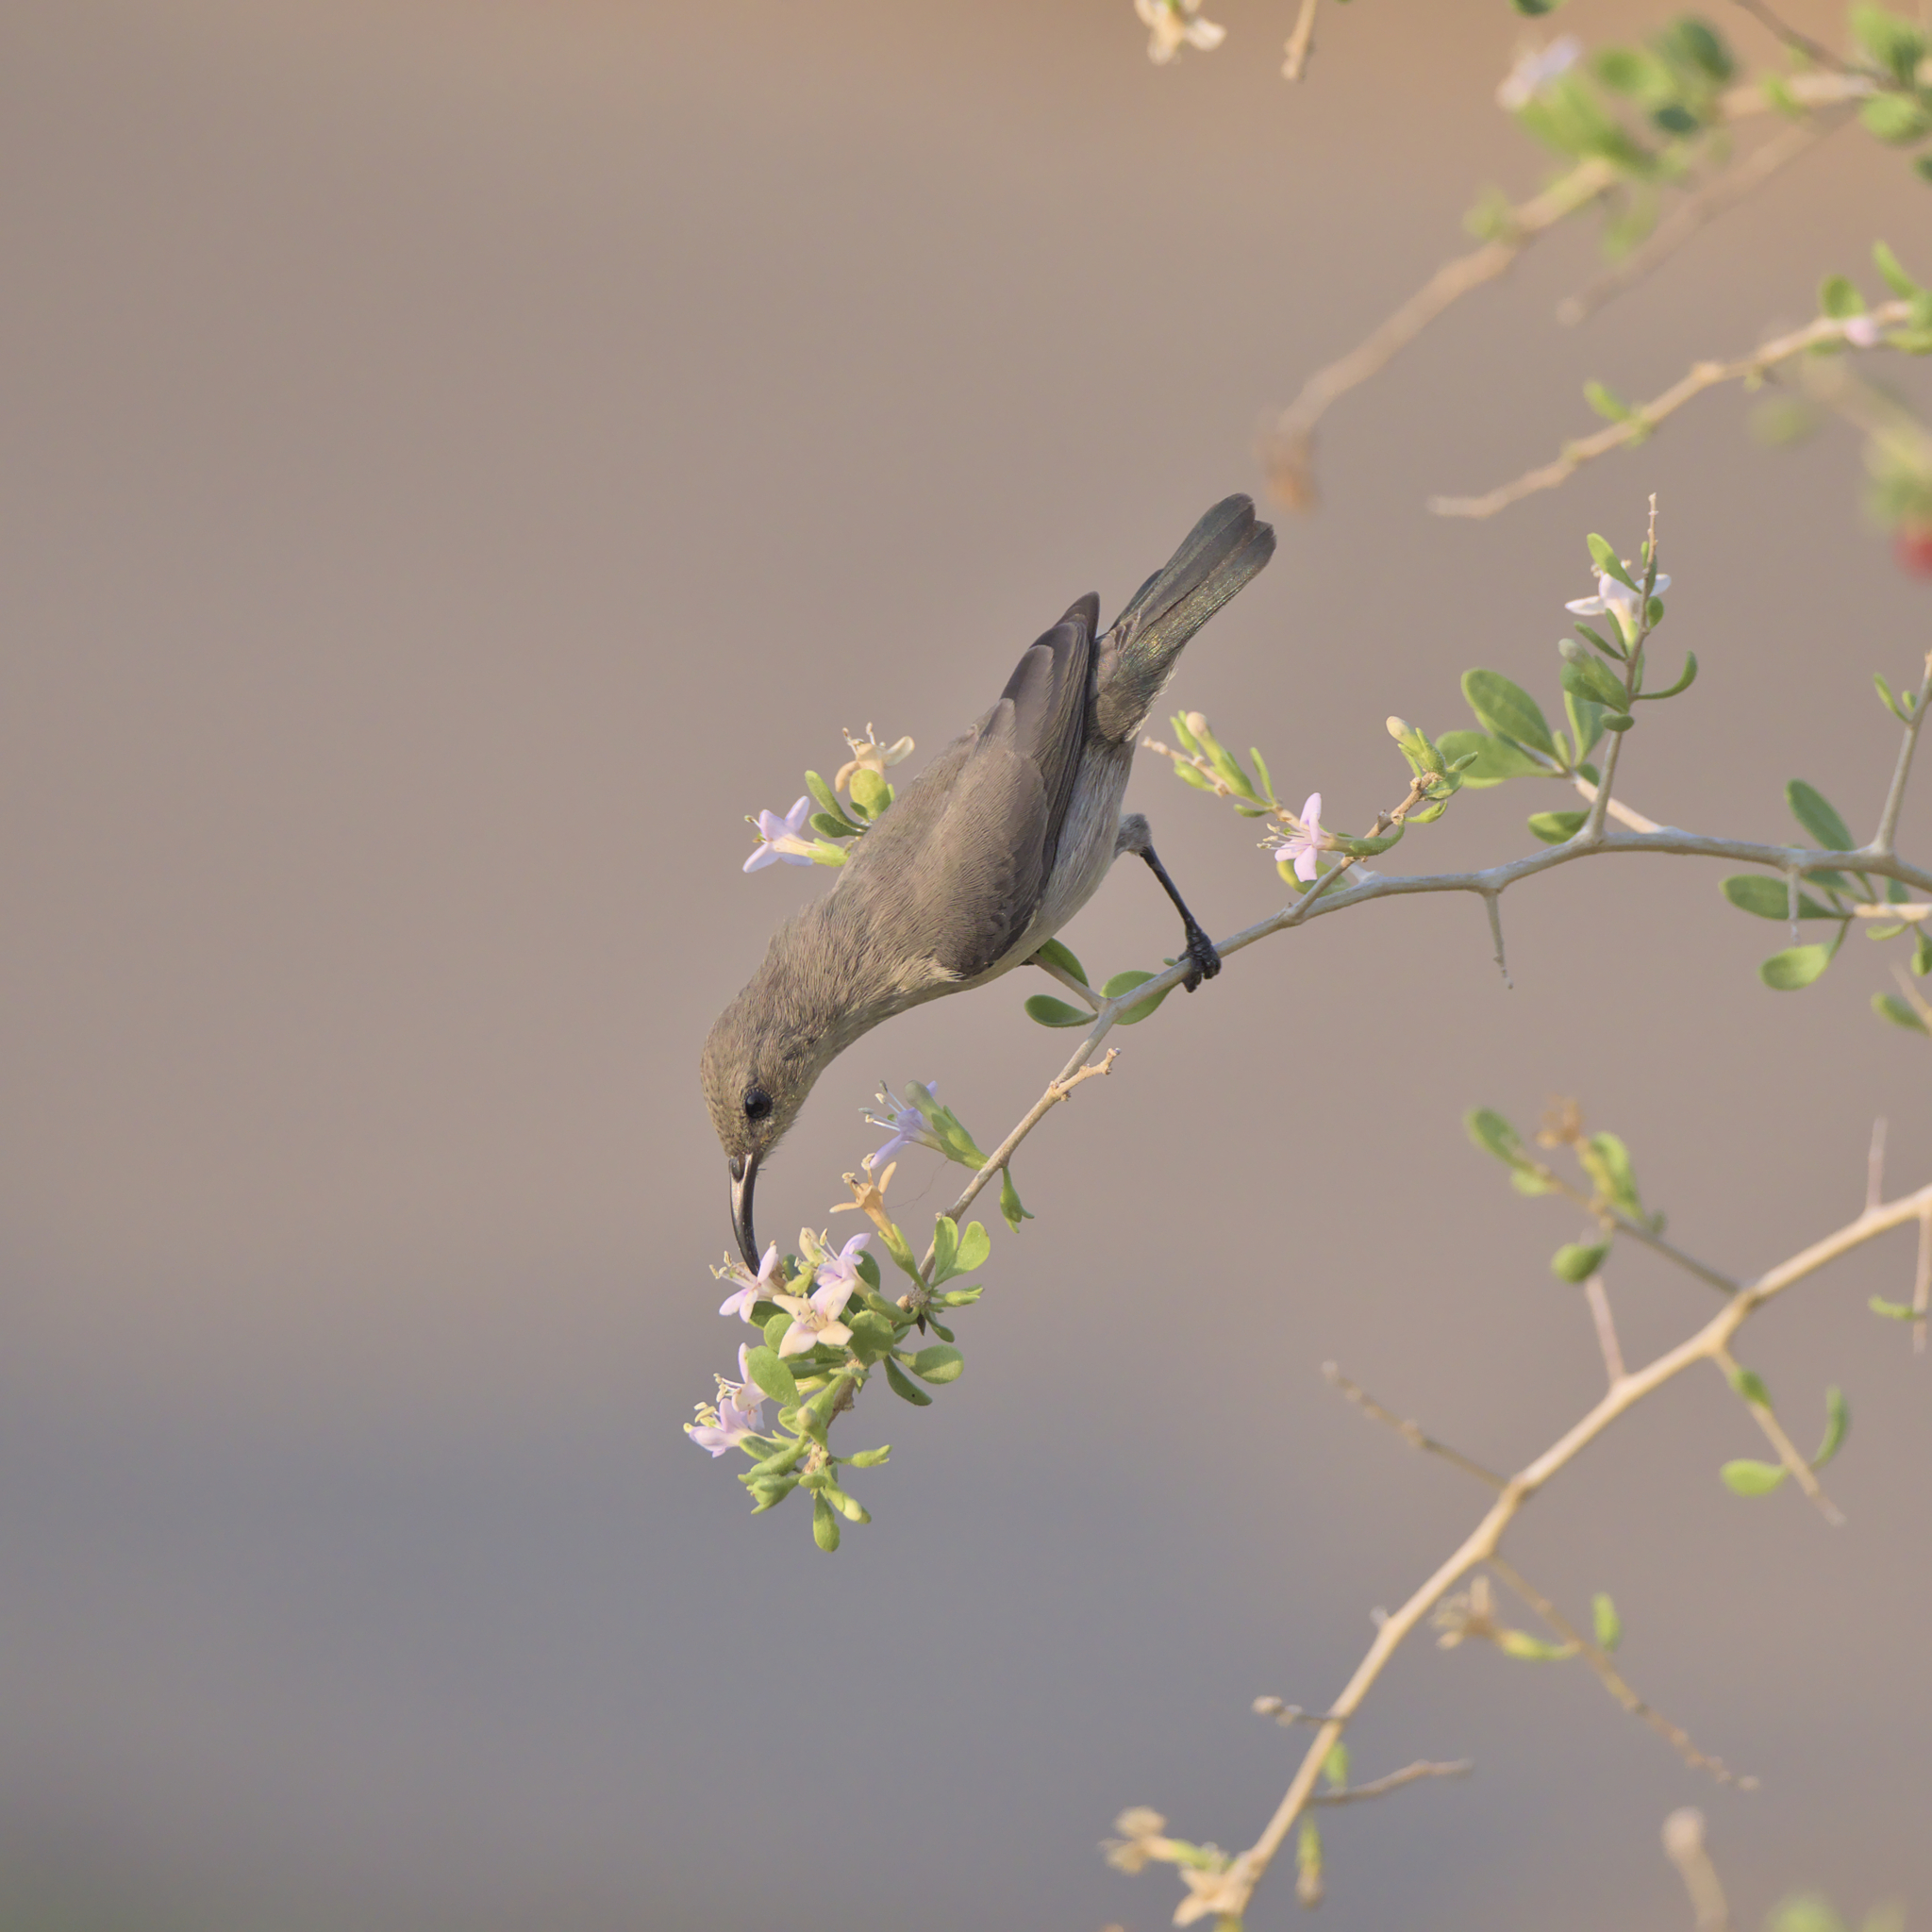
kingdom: Animalia
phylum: Chordata
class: Aves
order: Passeriformes
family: Nectariniidae
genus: Cinnyris
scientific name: Cinnyris osea
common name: Palestine sunbird
